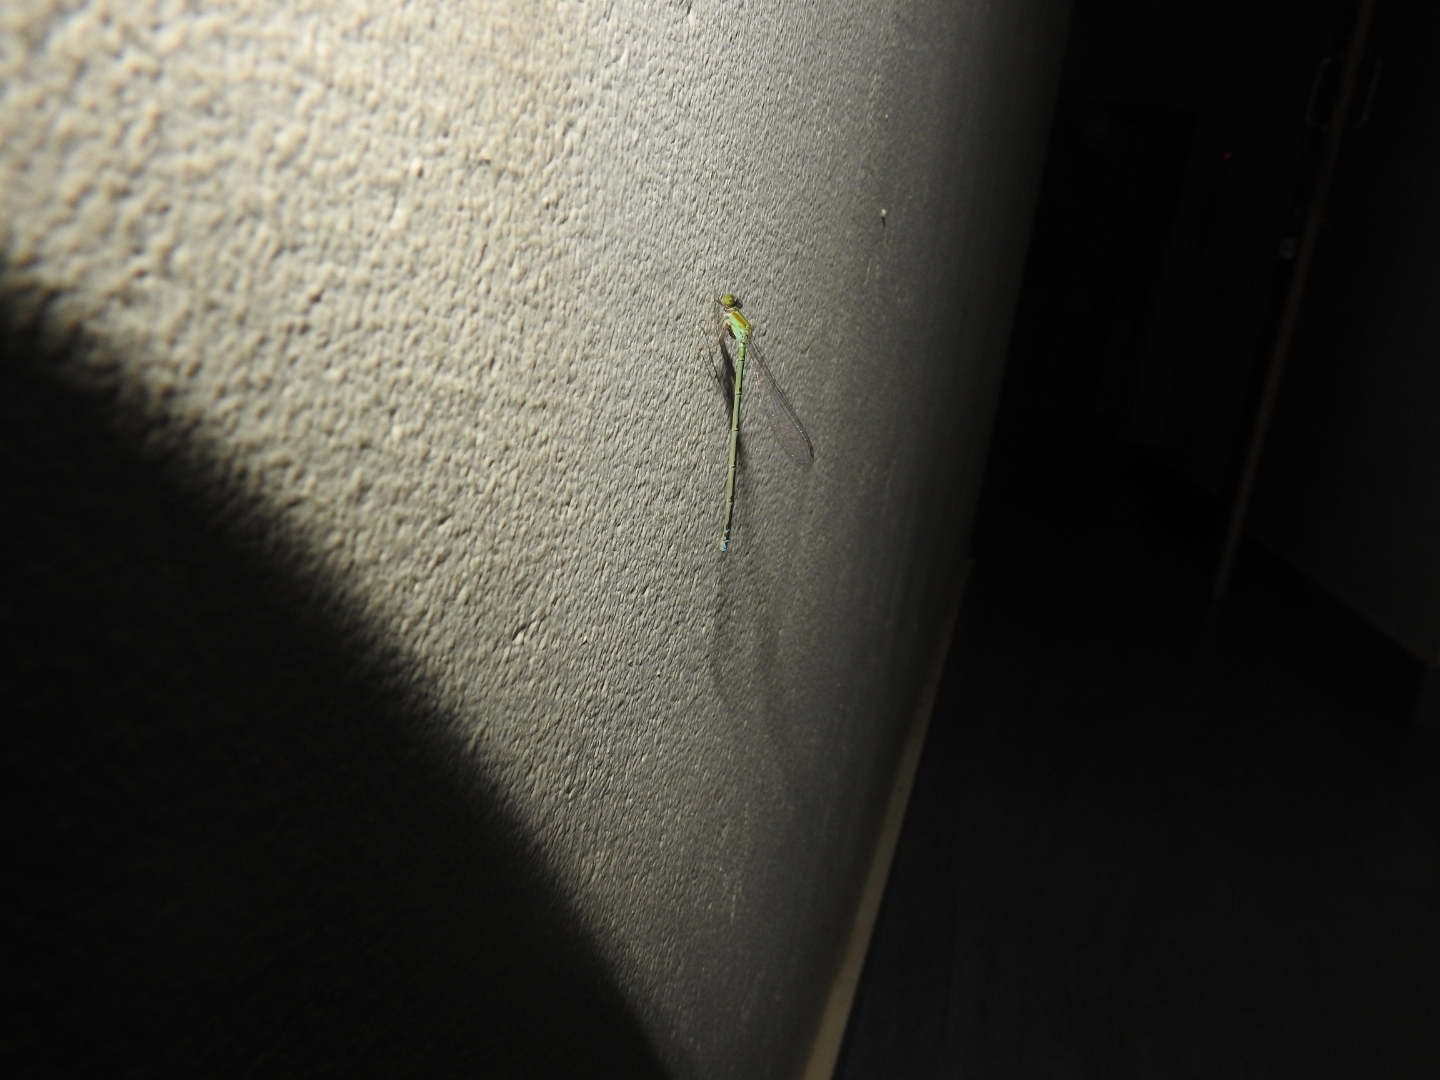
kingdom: Animalia
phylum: Arthropoda
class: Insecta
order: Odonata
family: Coenagrionidae
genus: Pseudagrion
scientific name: Pseudagrion microcephalum
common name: Blue riverdamsel
